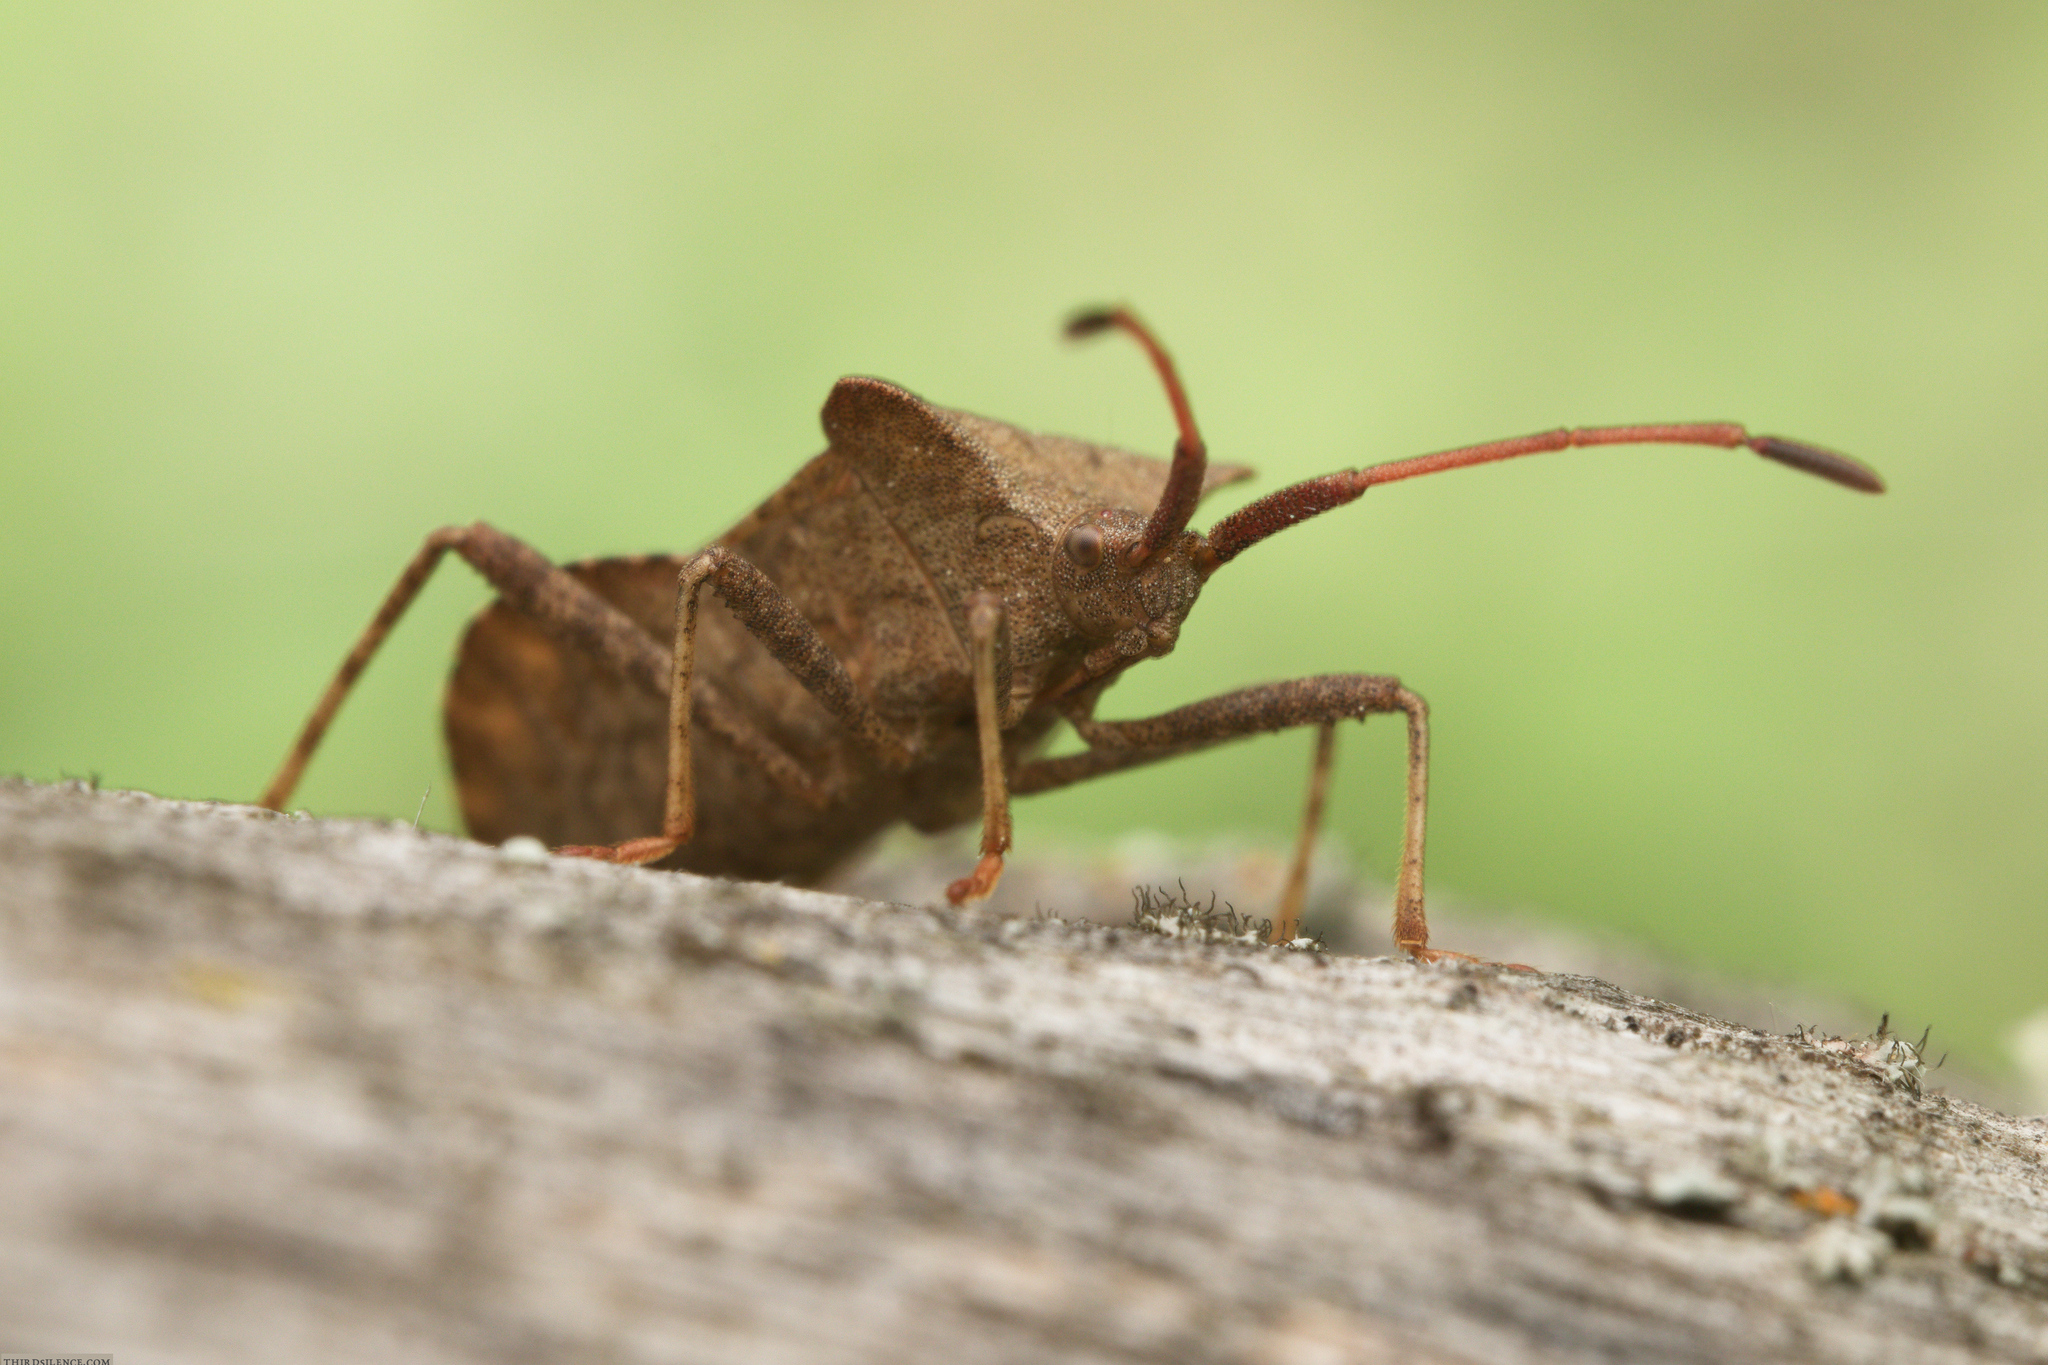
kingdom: Animalia
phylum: Arthropoda
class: Insecta
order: Hemiptera
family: Coreidae
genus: Coreus
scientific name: Coreus marginatus
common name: Dock bug
